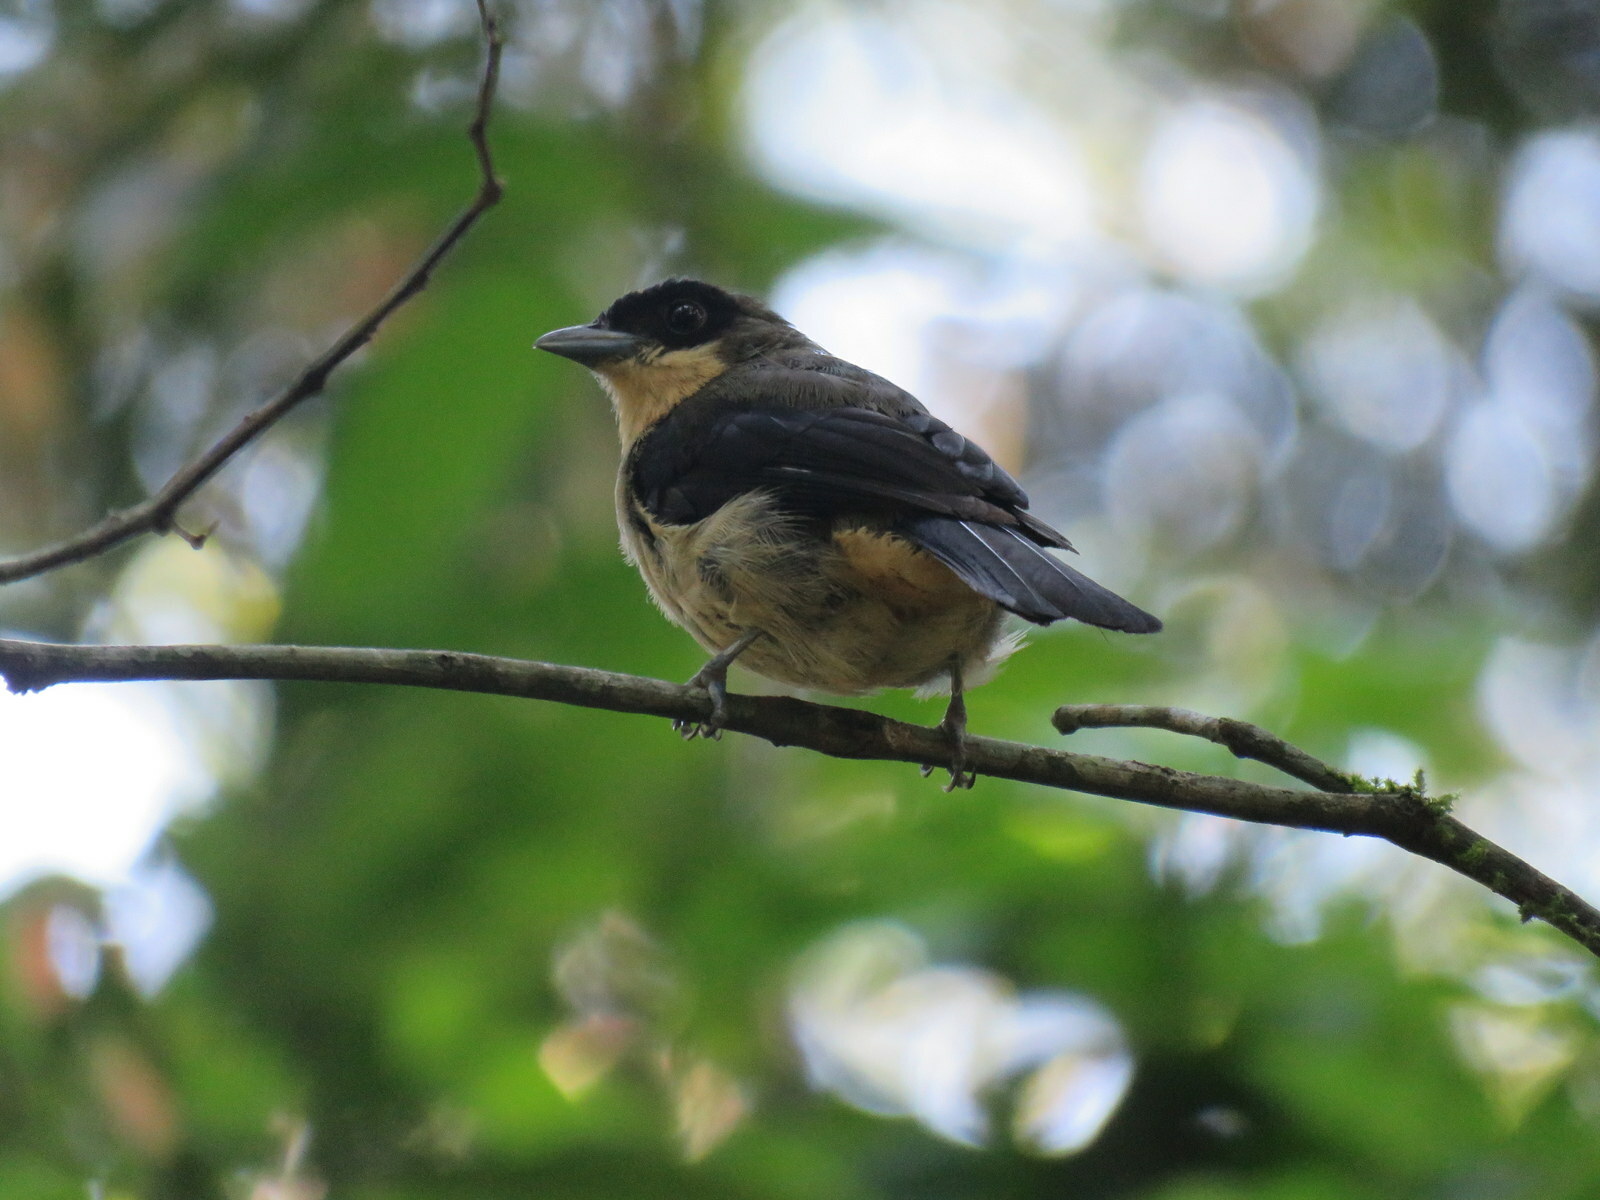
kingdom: Animalia
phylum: Chordata
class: Aves
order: Passeriformes
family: Thraupidae
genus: Trichothraupis
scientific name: Trichothraupis melanops
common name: Black-goggled tanager
